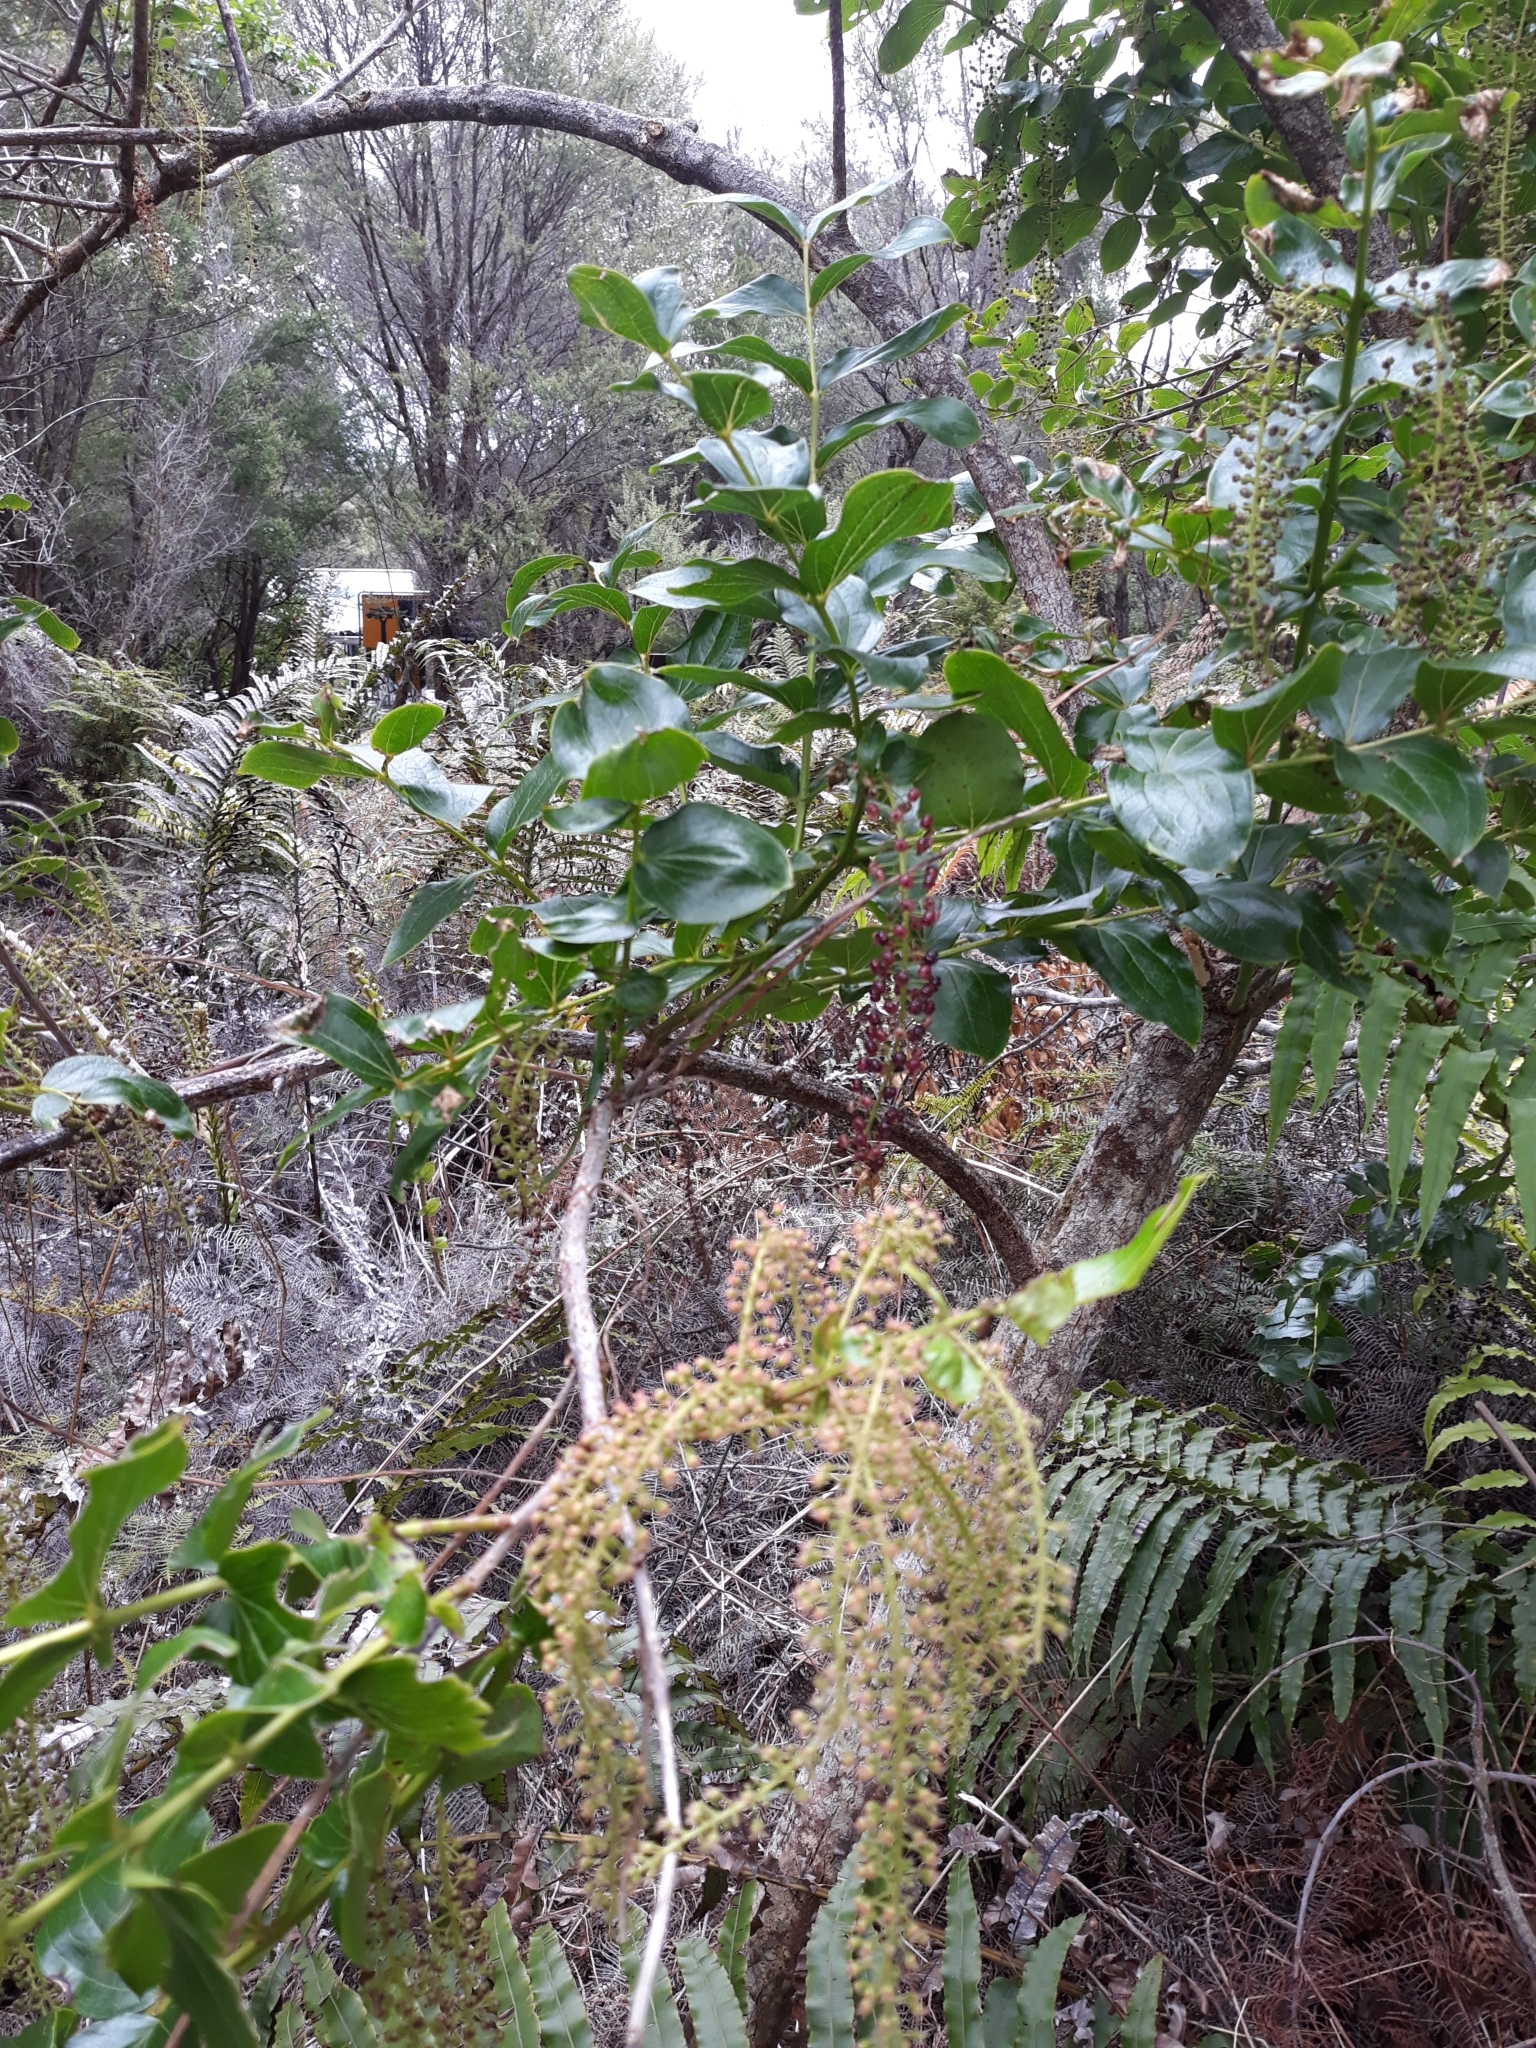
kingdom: Plantae
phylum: Tracheophyta
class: Magnoliopsida
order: Cucurbitales
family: Coriariaceae
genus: Coriaria
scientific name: Coriaria arborea
